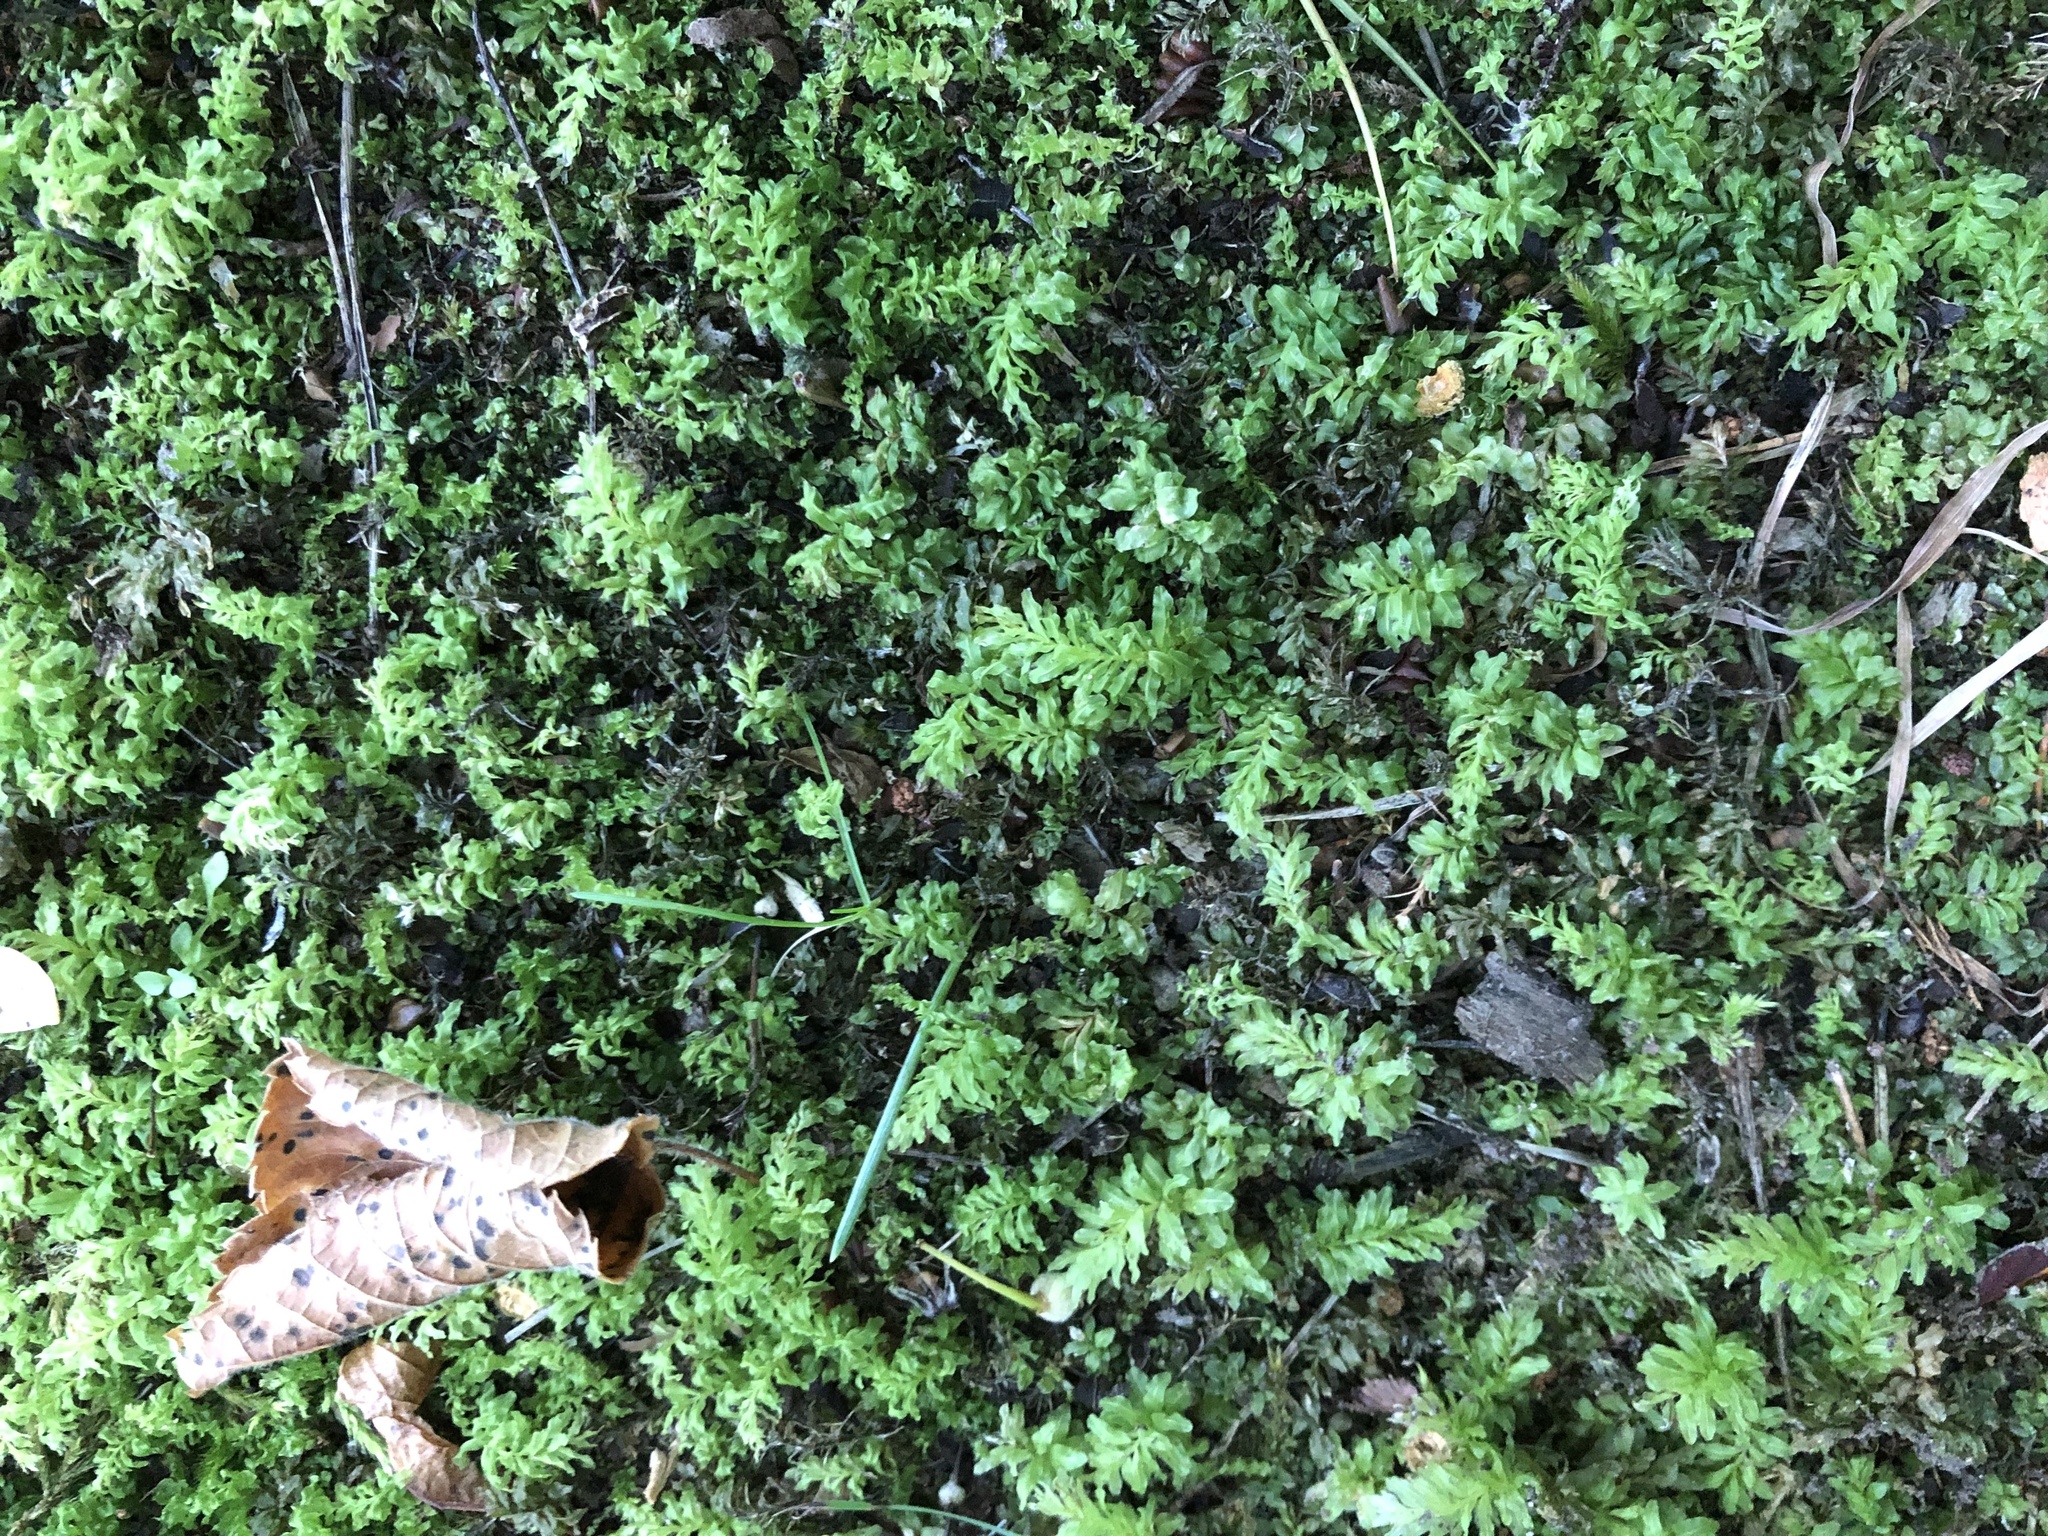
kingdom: Plantae
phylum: Bryophyta
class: Bryopsida
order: Bryales
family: Mniaceae
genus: Plagiomnium
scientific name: Plagiomnium undulatum
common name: Hart's-tongue thyme-moss
